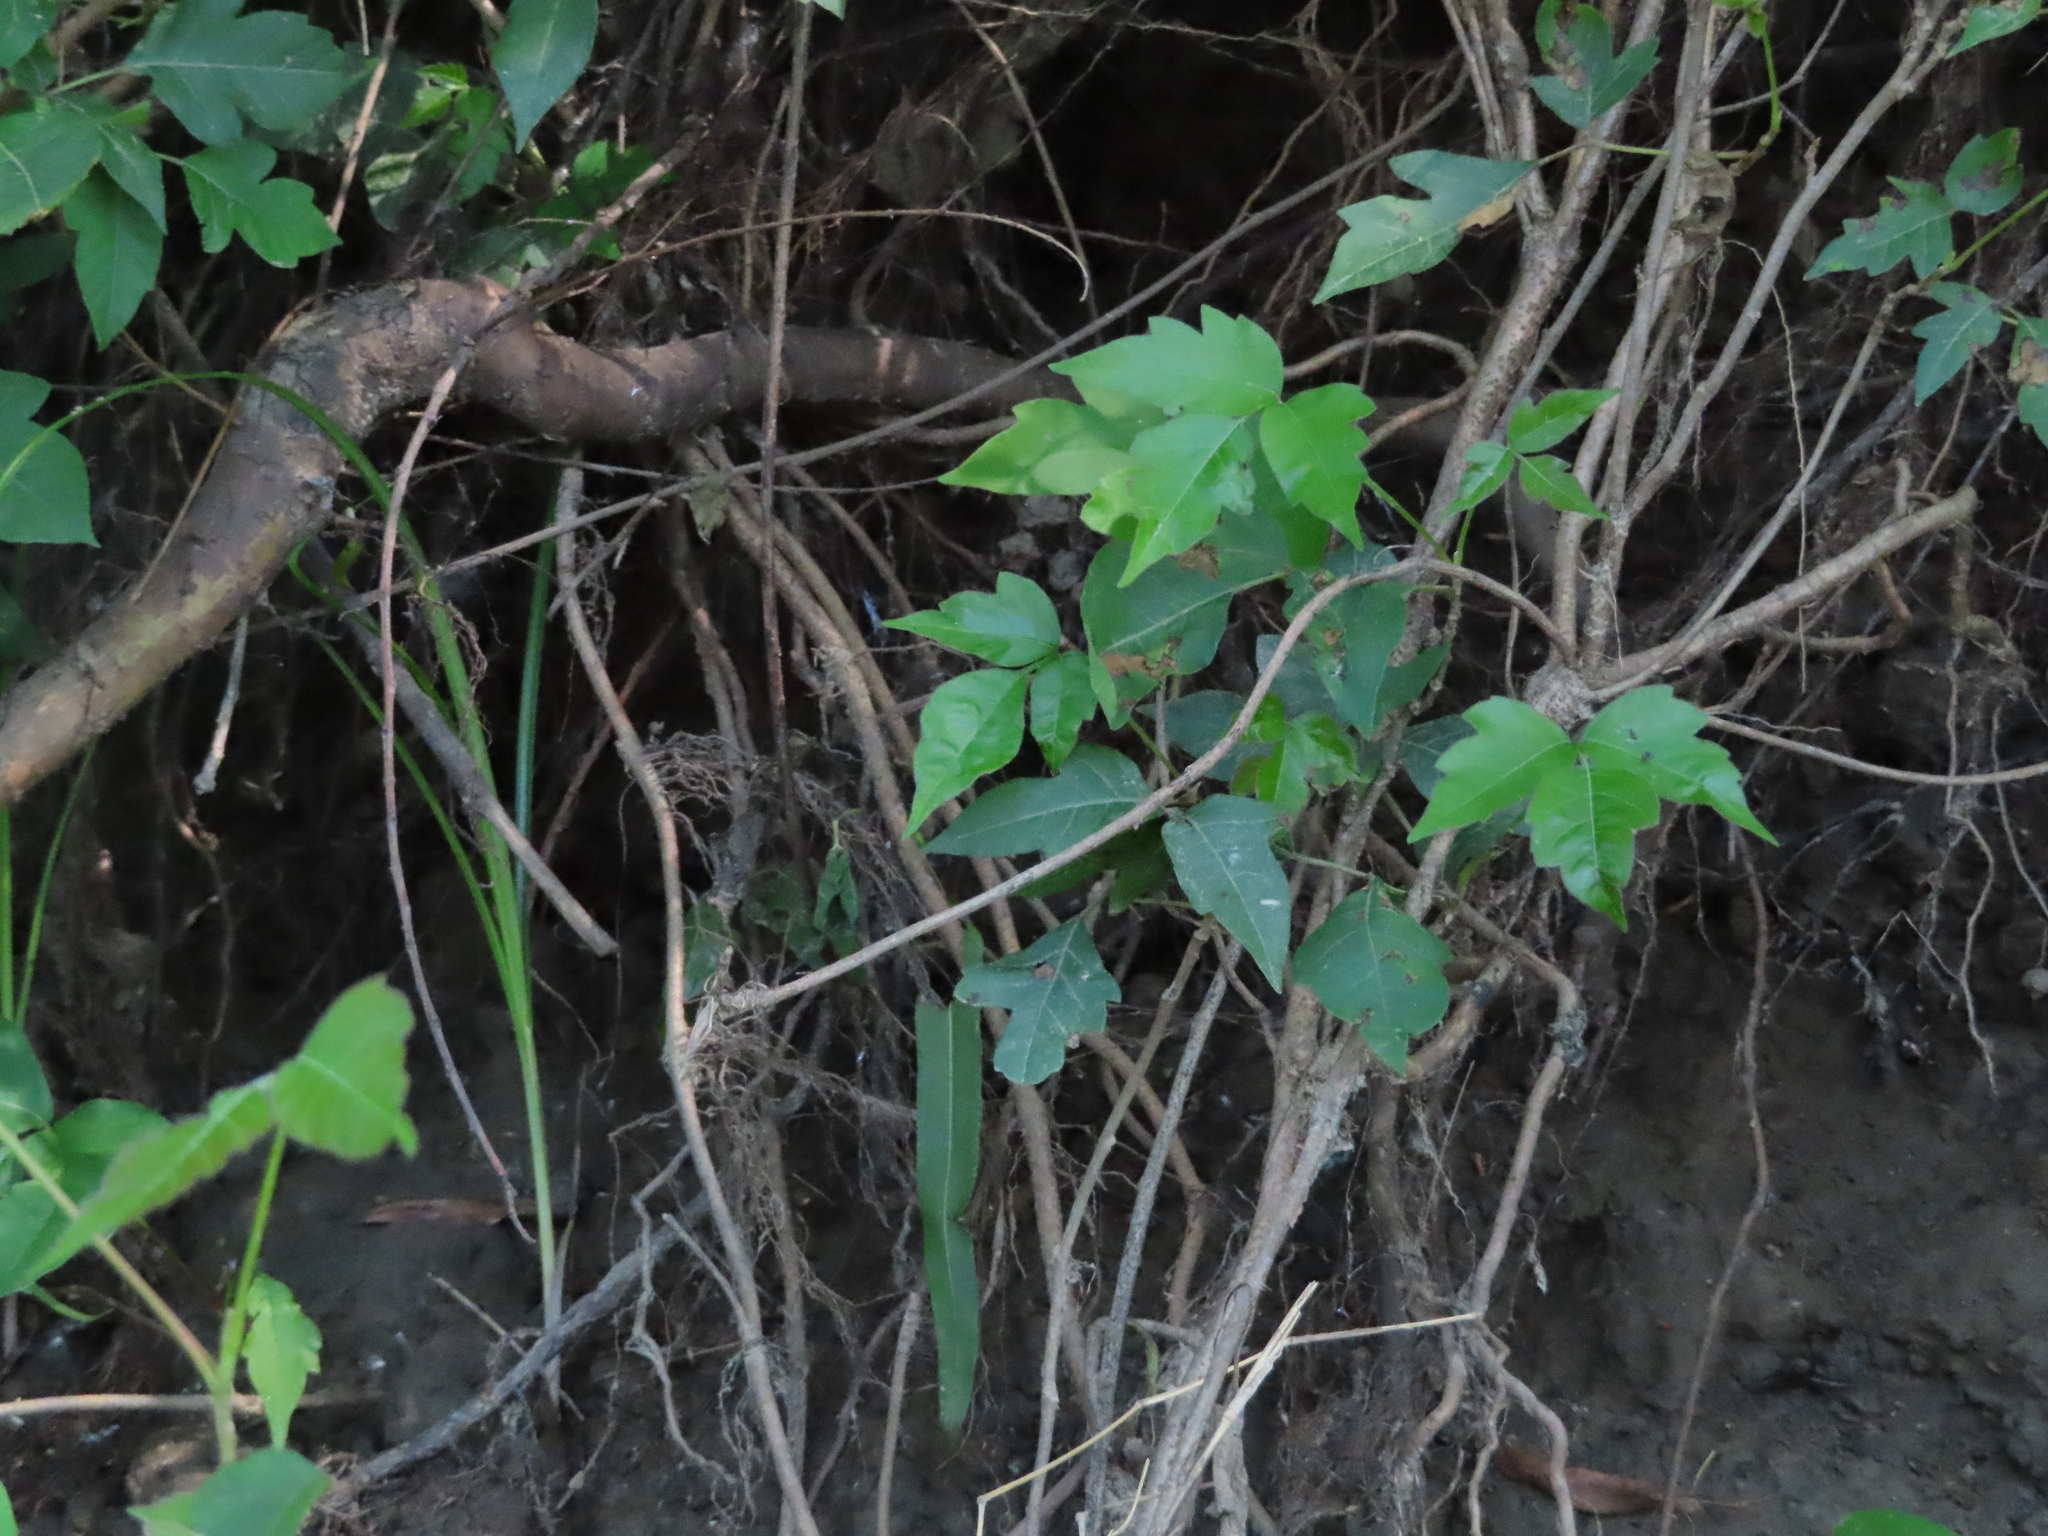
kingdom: Plantae
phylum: Tracheophyta
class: Magnoliopsida
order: Sapindales
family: Anacardiaceae
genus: Toxicodendron
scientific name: Toxicodendron radicans
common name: Poison ivy
